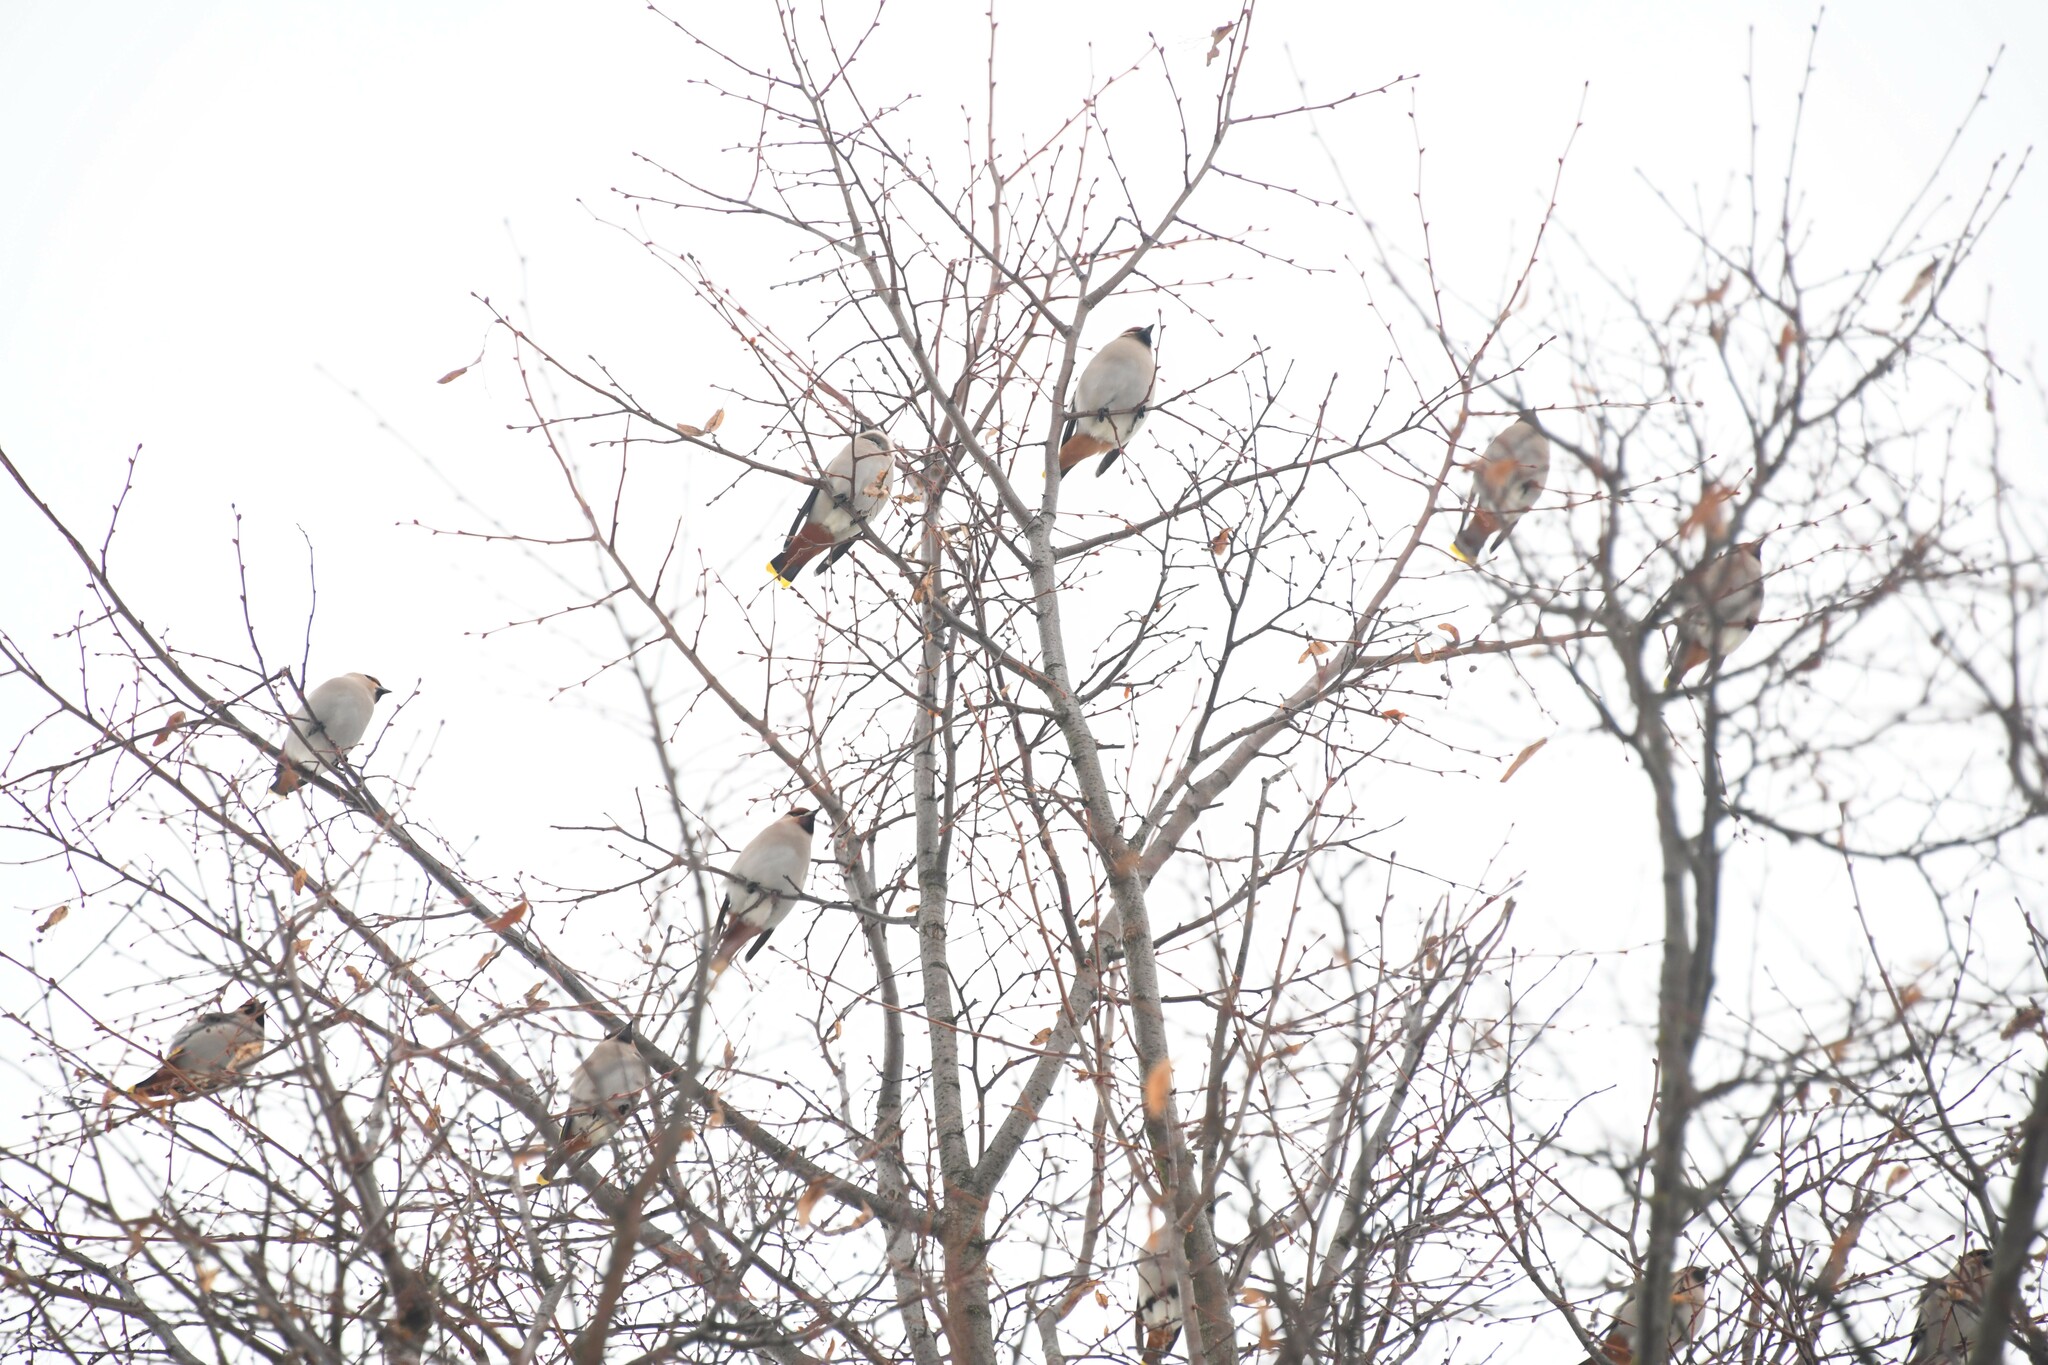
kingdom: Animalia
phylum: Chordata
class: Aves
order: Passeriformes
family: Bombycillidae
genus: Bombycilla
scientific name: Bombycilla garrulus
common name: Bohemian waxwing
